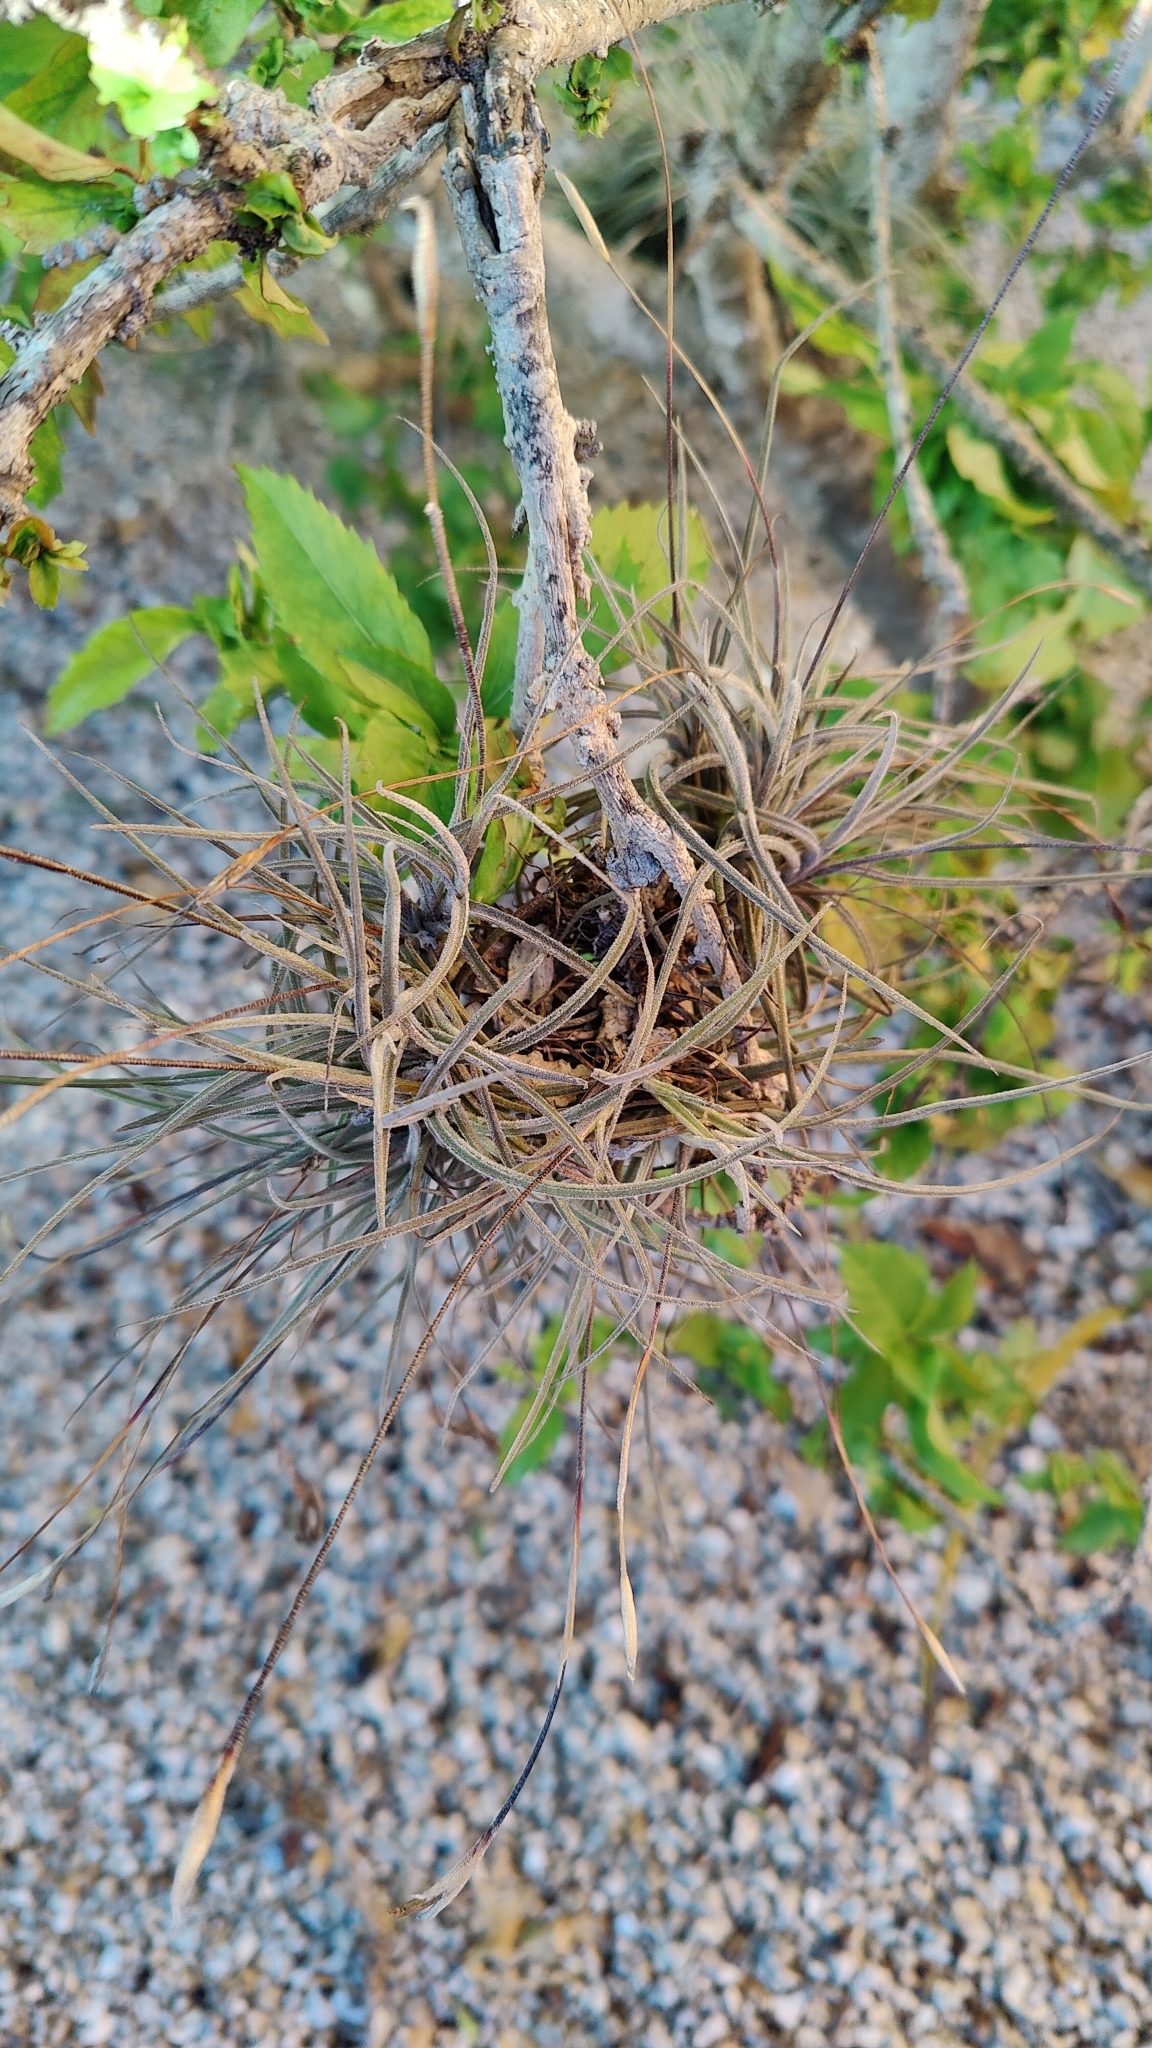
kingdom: Plantae
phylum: Tracheophyta
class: Liliopsida
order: Poales
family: Bromeliaceae
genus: Tillandsia
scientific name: Tillandsia recurvata
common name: Small ballmoss
